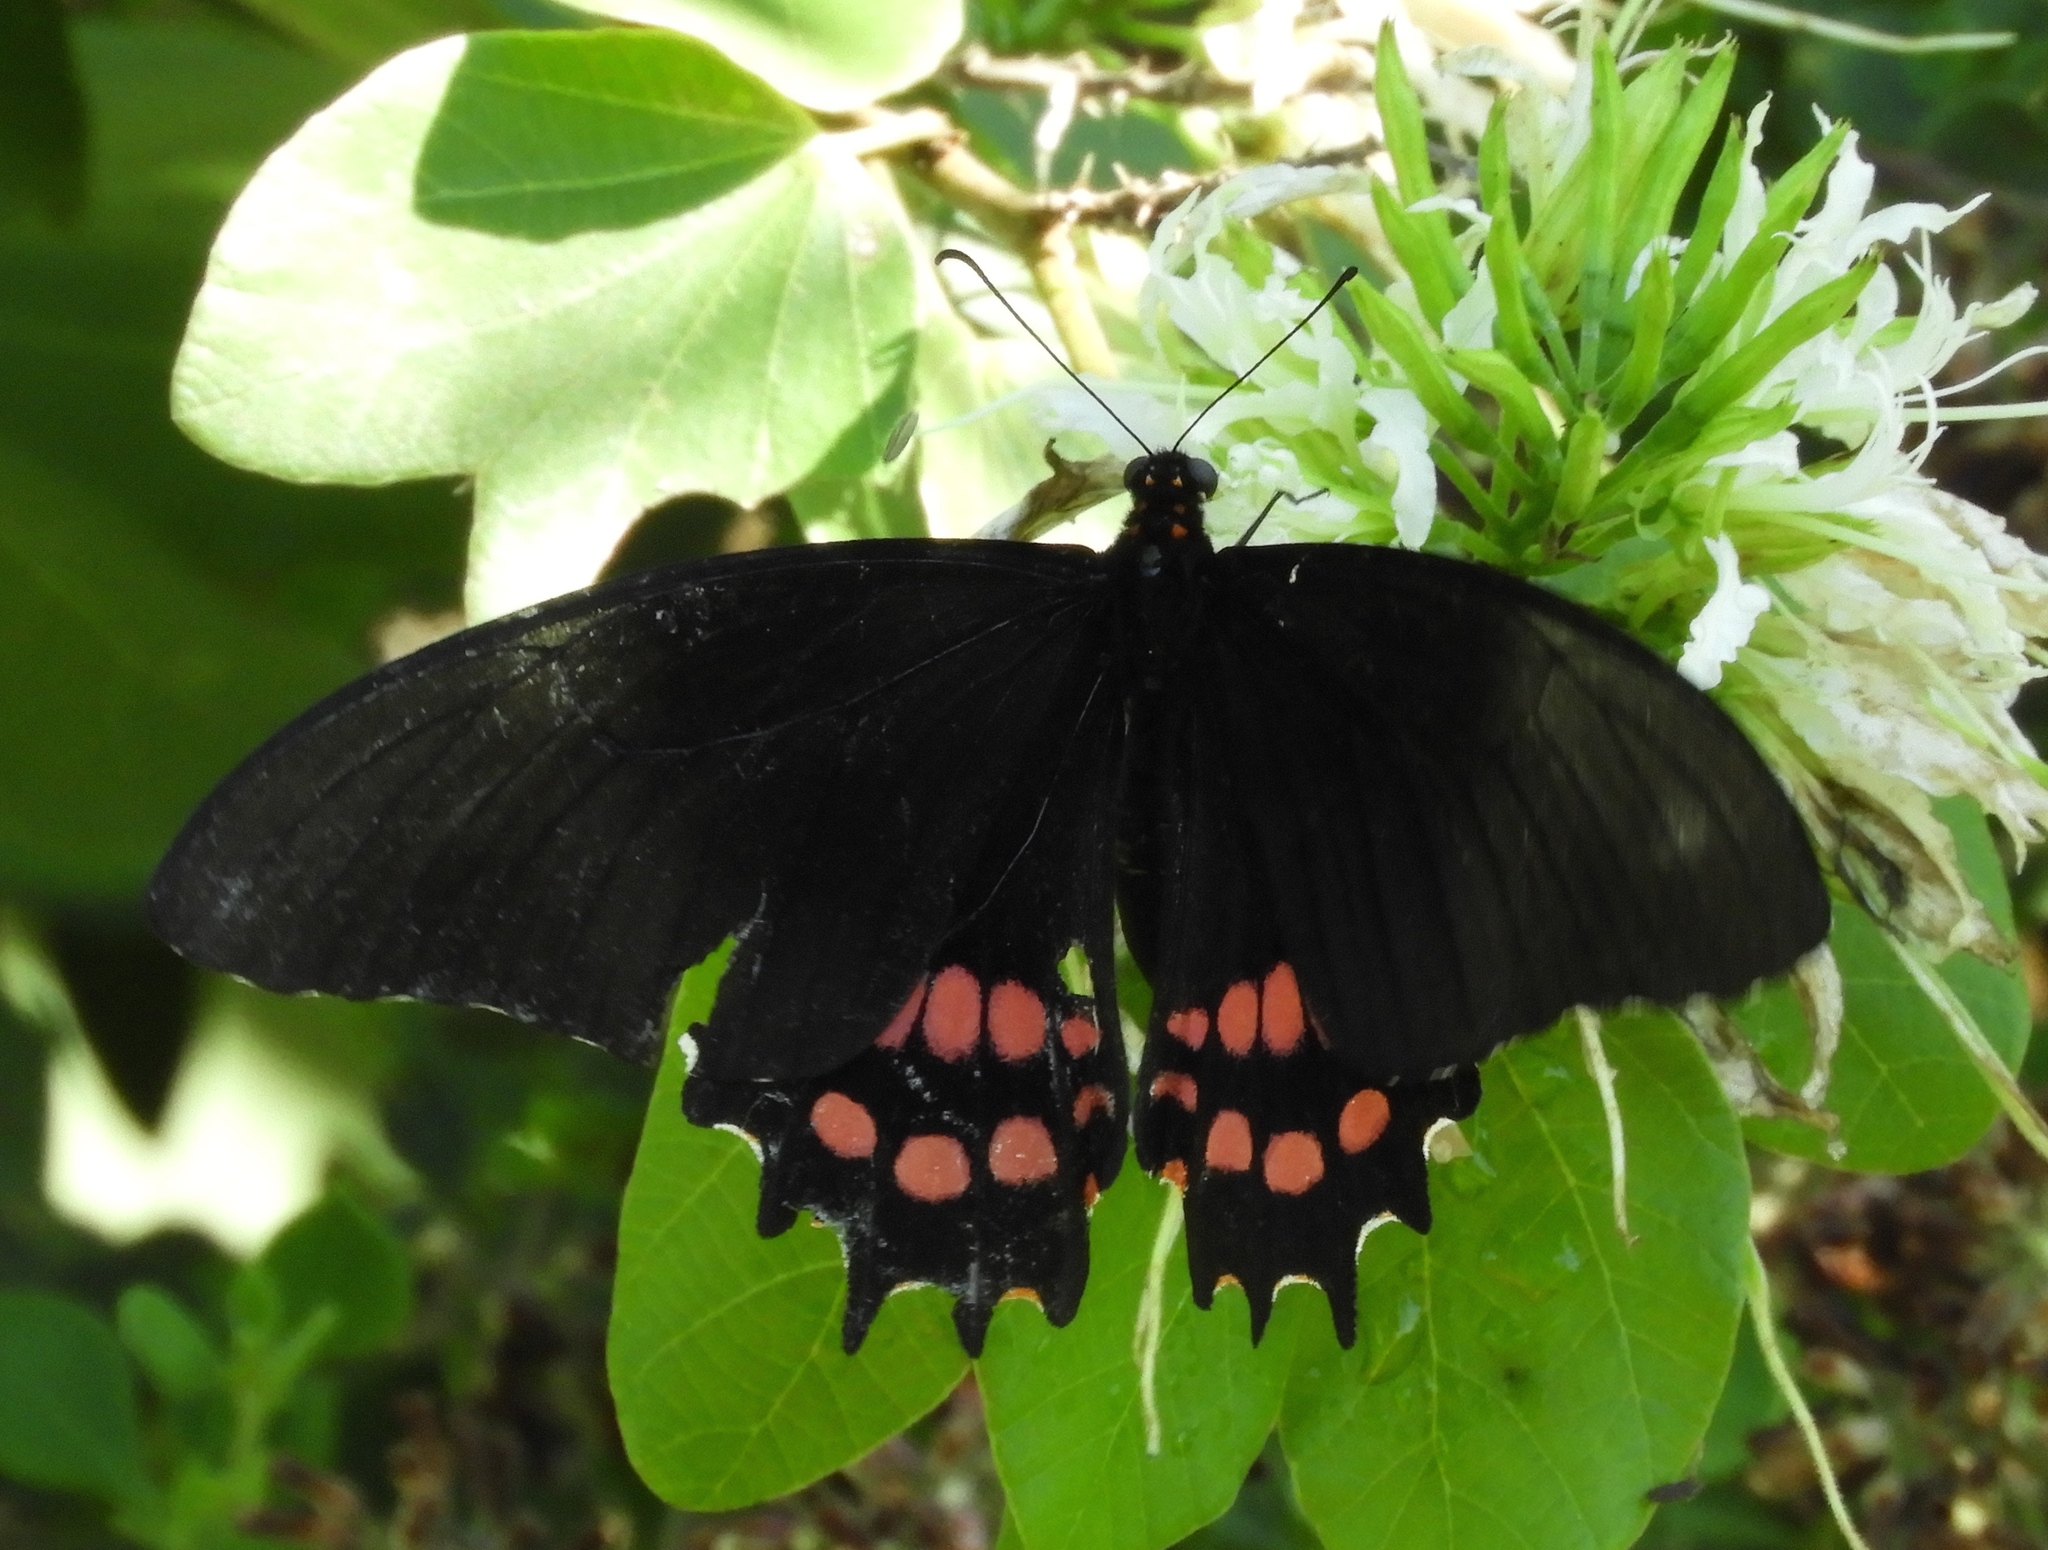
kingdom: Animalia
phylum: Arthropoda
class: Insecta
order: Lepidoptera
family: Papilionidae
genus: Heraclides
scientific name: Heraclides rogeri
